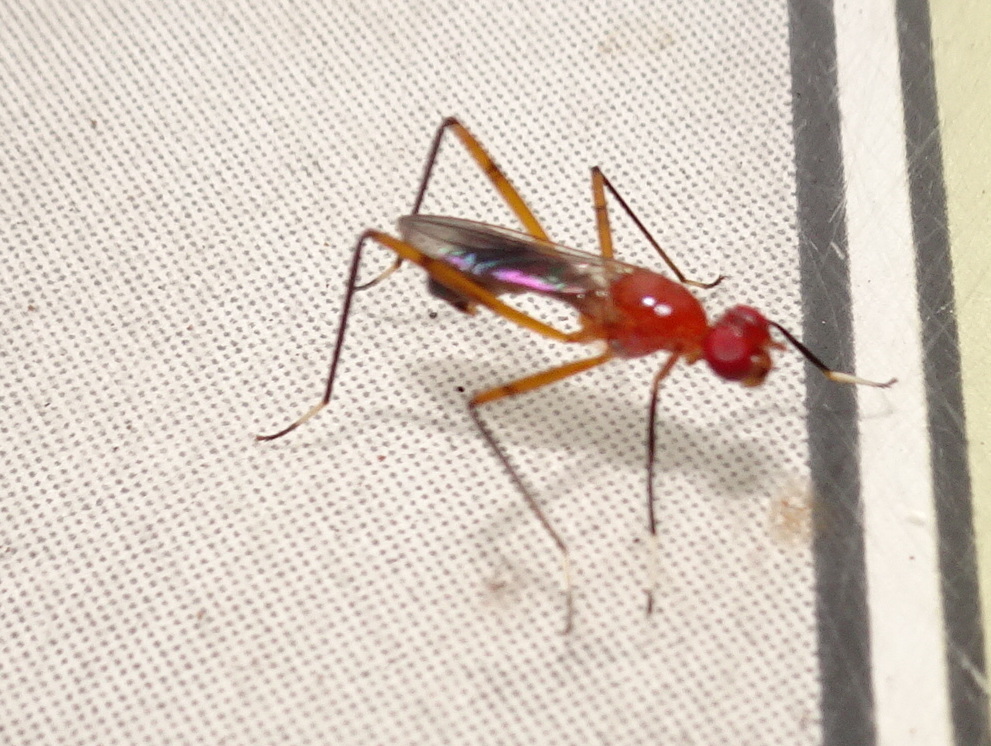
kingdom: Animalia
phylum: Arthropoda
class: Insecta
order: Diptera
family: Micropezidae
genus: Grallipeza
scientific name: Grallipeza nebulosa
